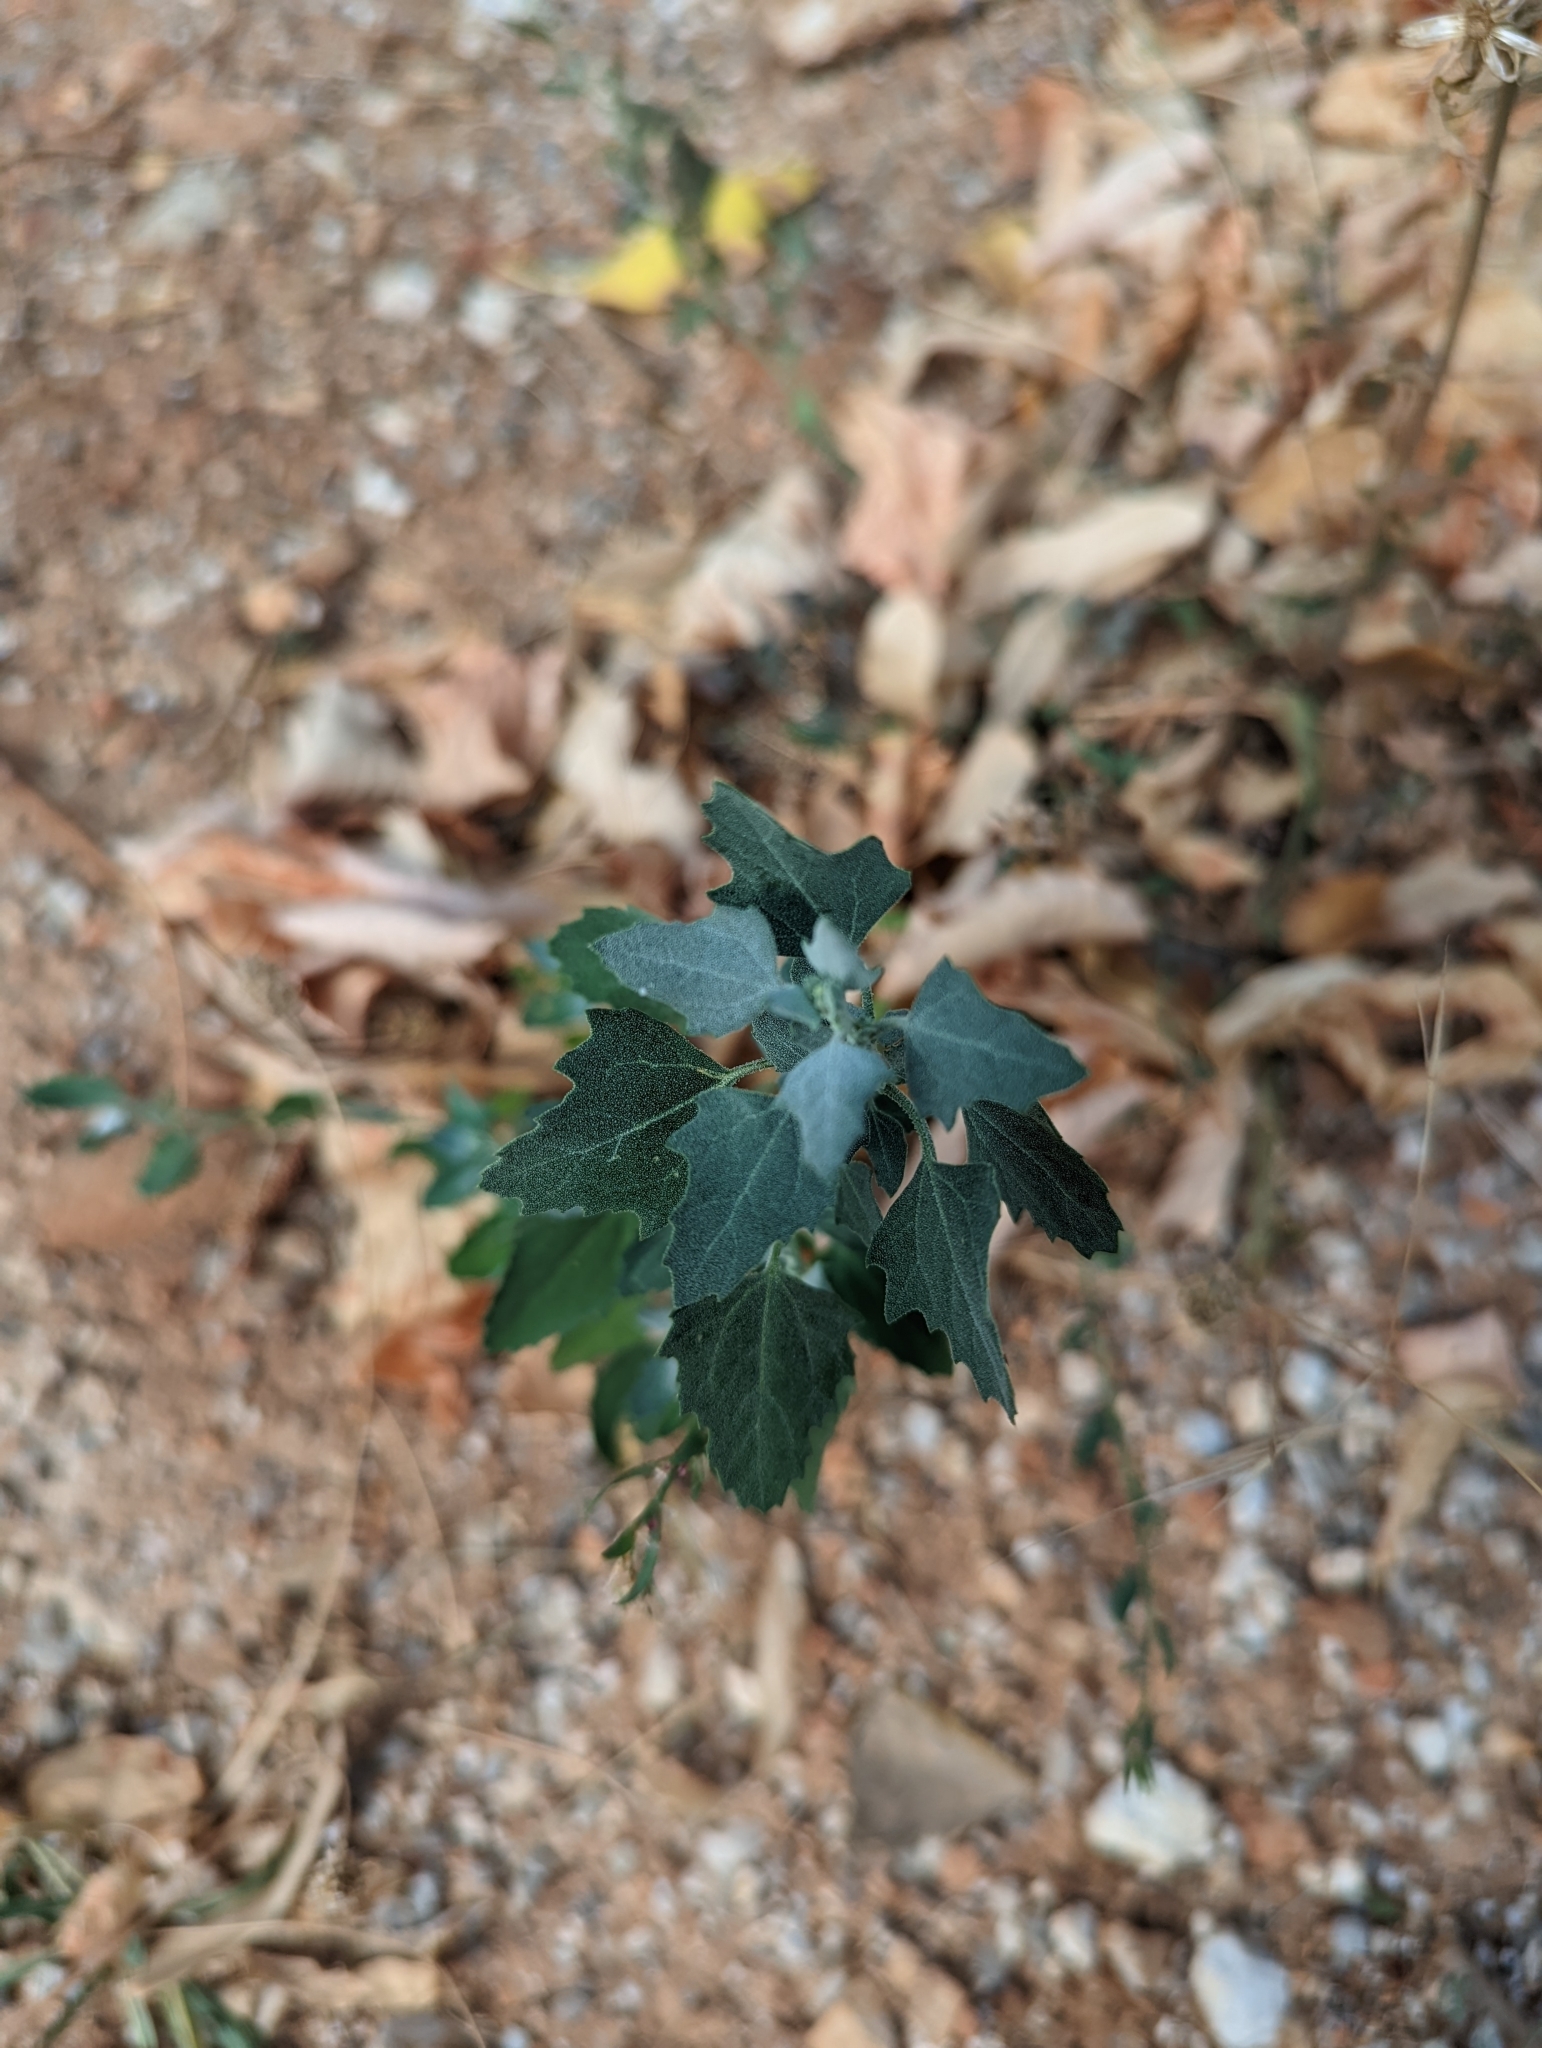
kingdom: Plantae
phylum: Tracheophyta
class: Magnoliopsida
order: Caryophyllales
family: Amaranthaceae
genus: Chenopodium
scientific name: Chenopodium album
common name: Fat-hen
